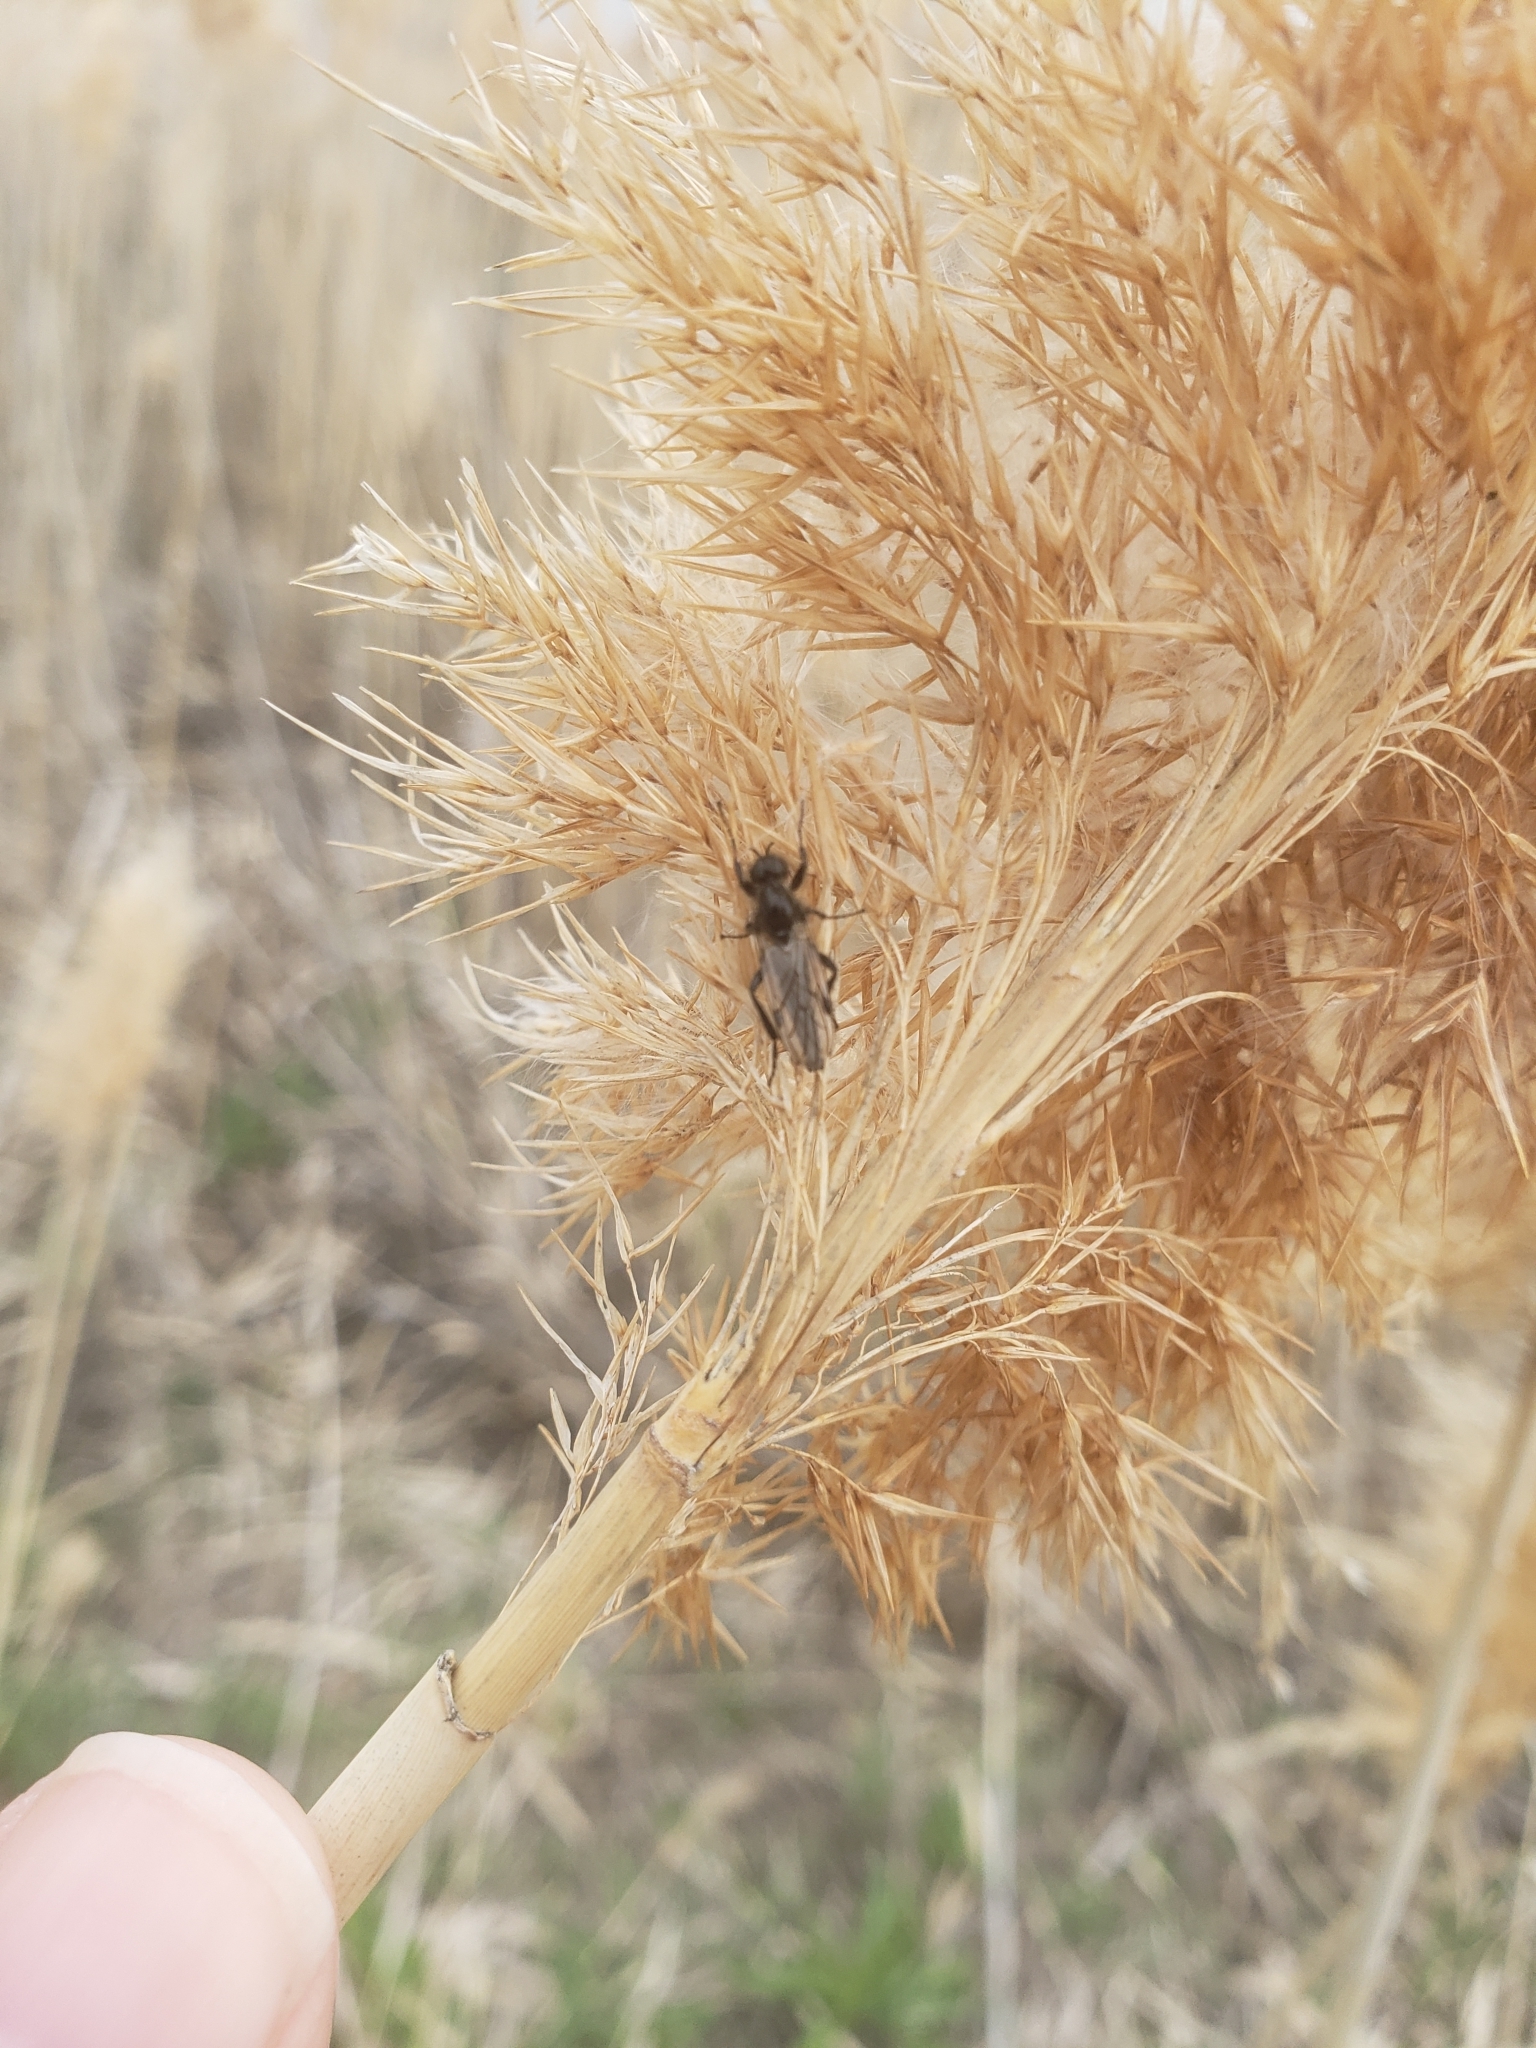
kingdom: Animalia
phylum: Arthropoda
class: Insecta
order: Diptera
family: Bibionidae
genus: Bibio
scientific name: Bibio albipennis
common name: White-winged march fly
